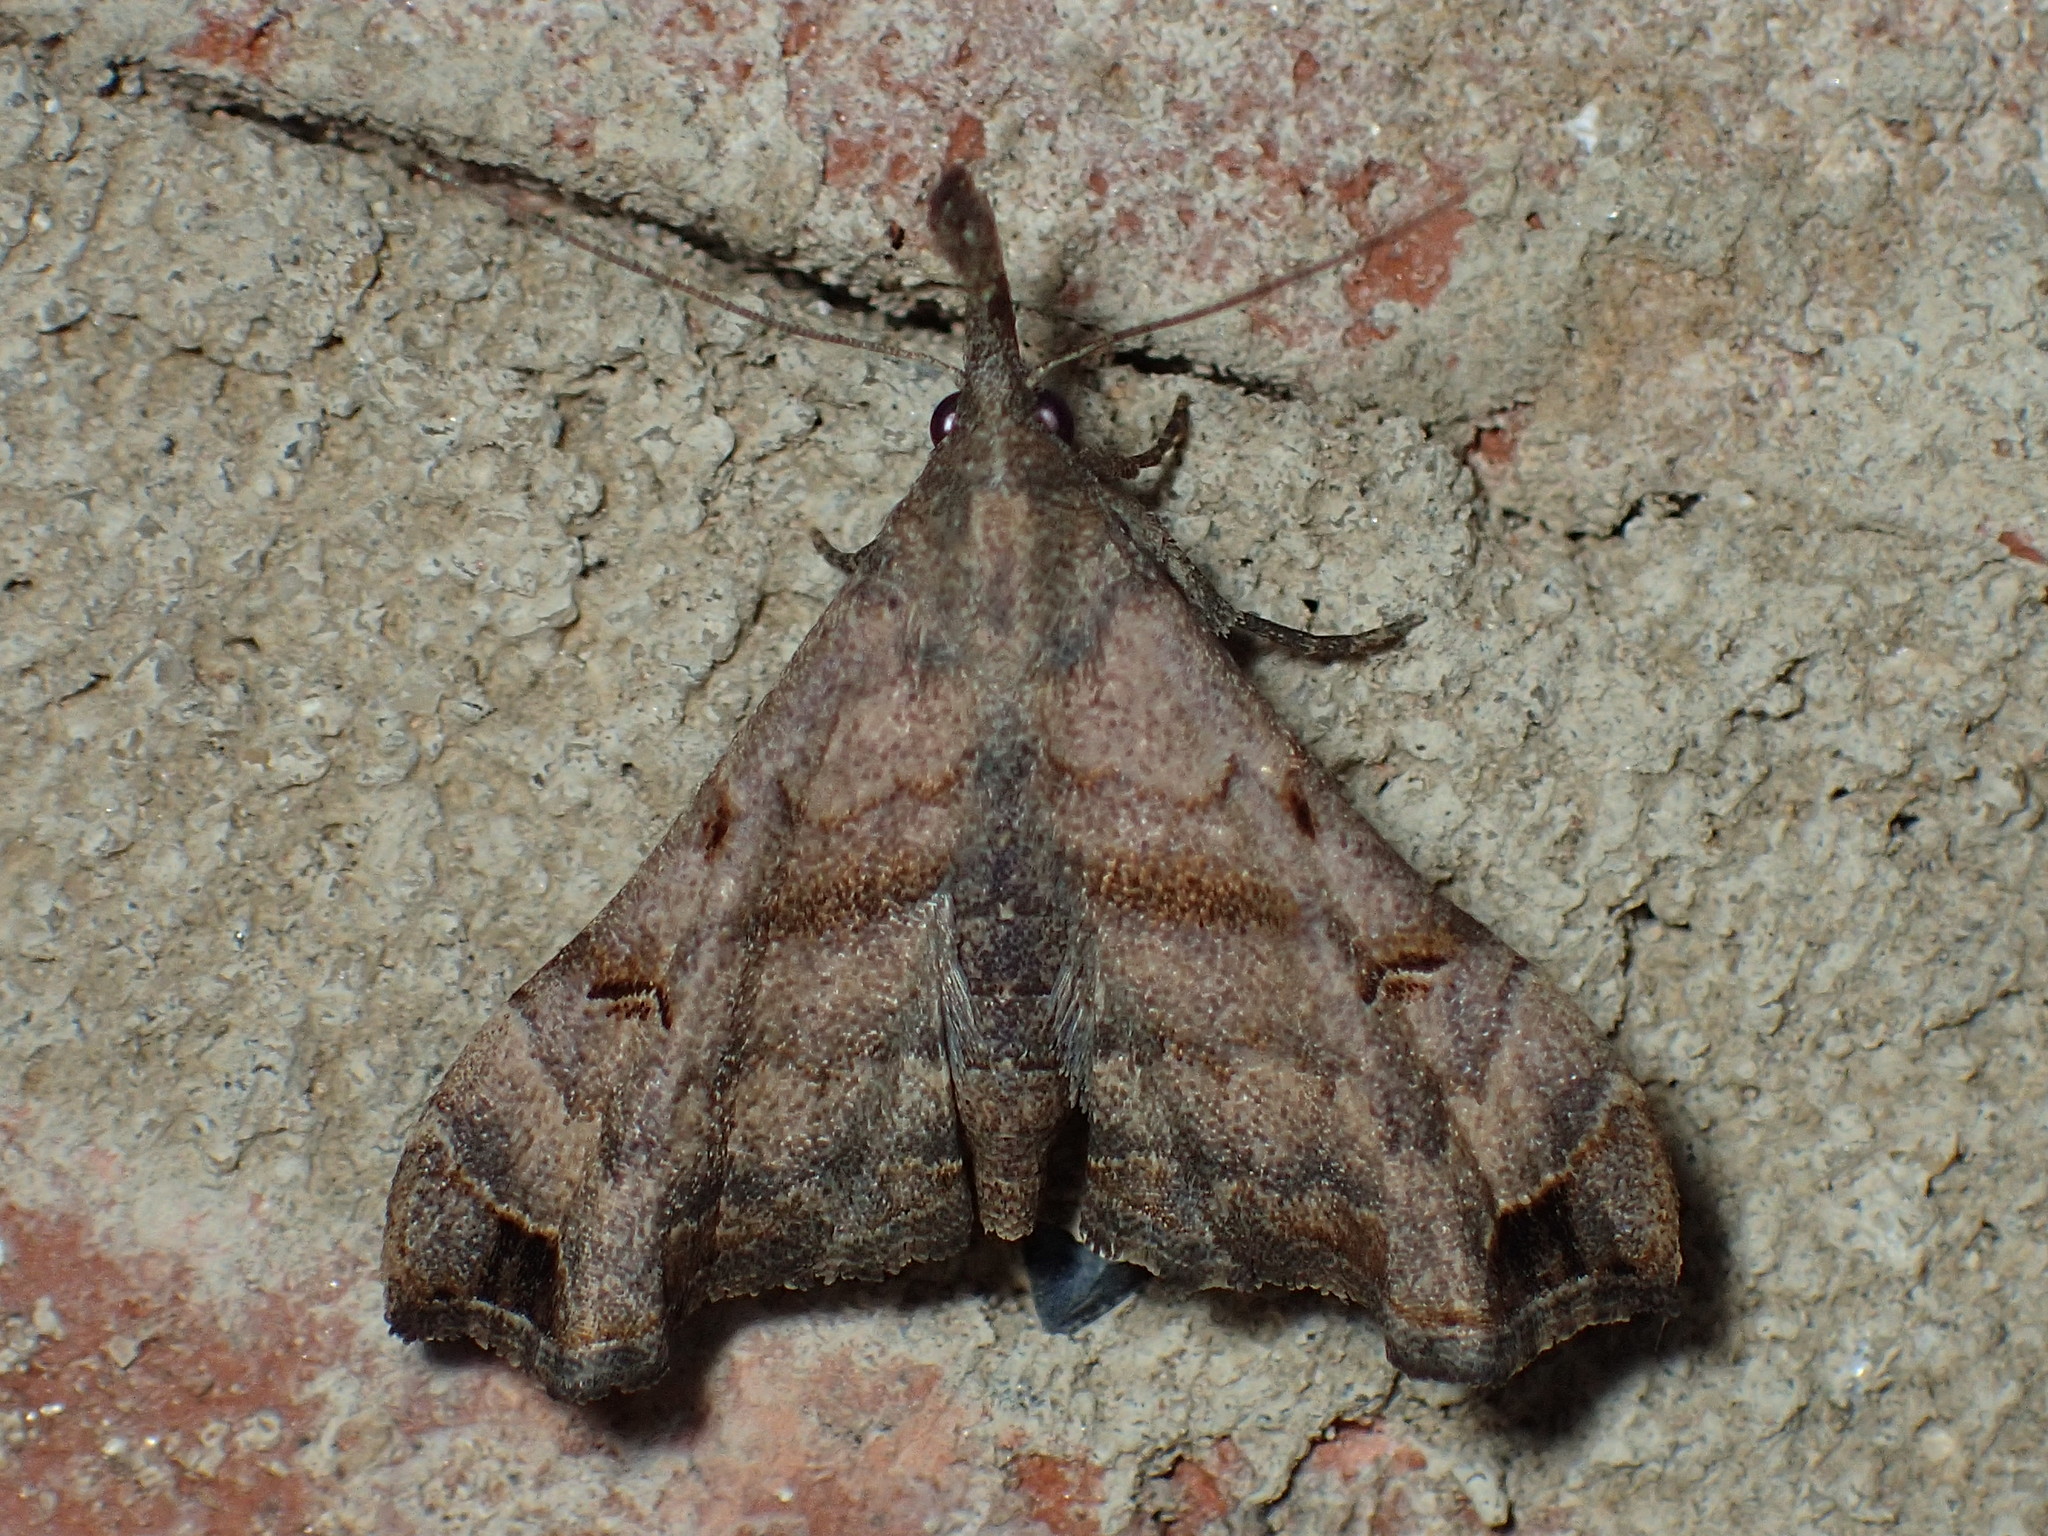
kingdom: Animalia
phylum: Arthropoda
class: Insecta
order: Lepidoptera
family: Erebidae
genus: Palthis
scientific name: Palthis asopialis
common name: Faint-spotted palthis moth
